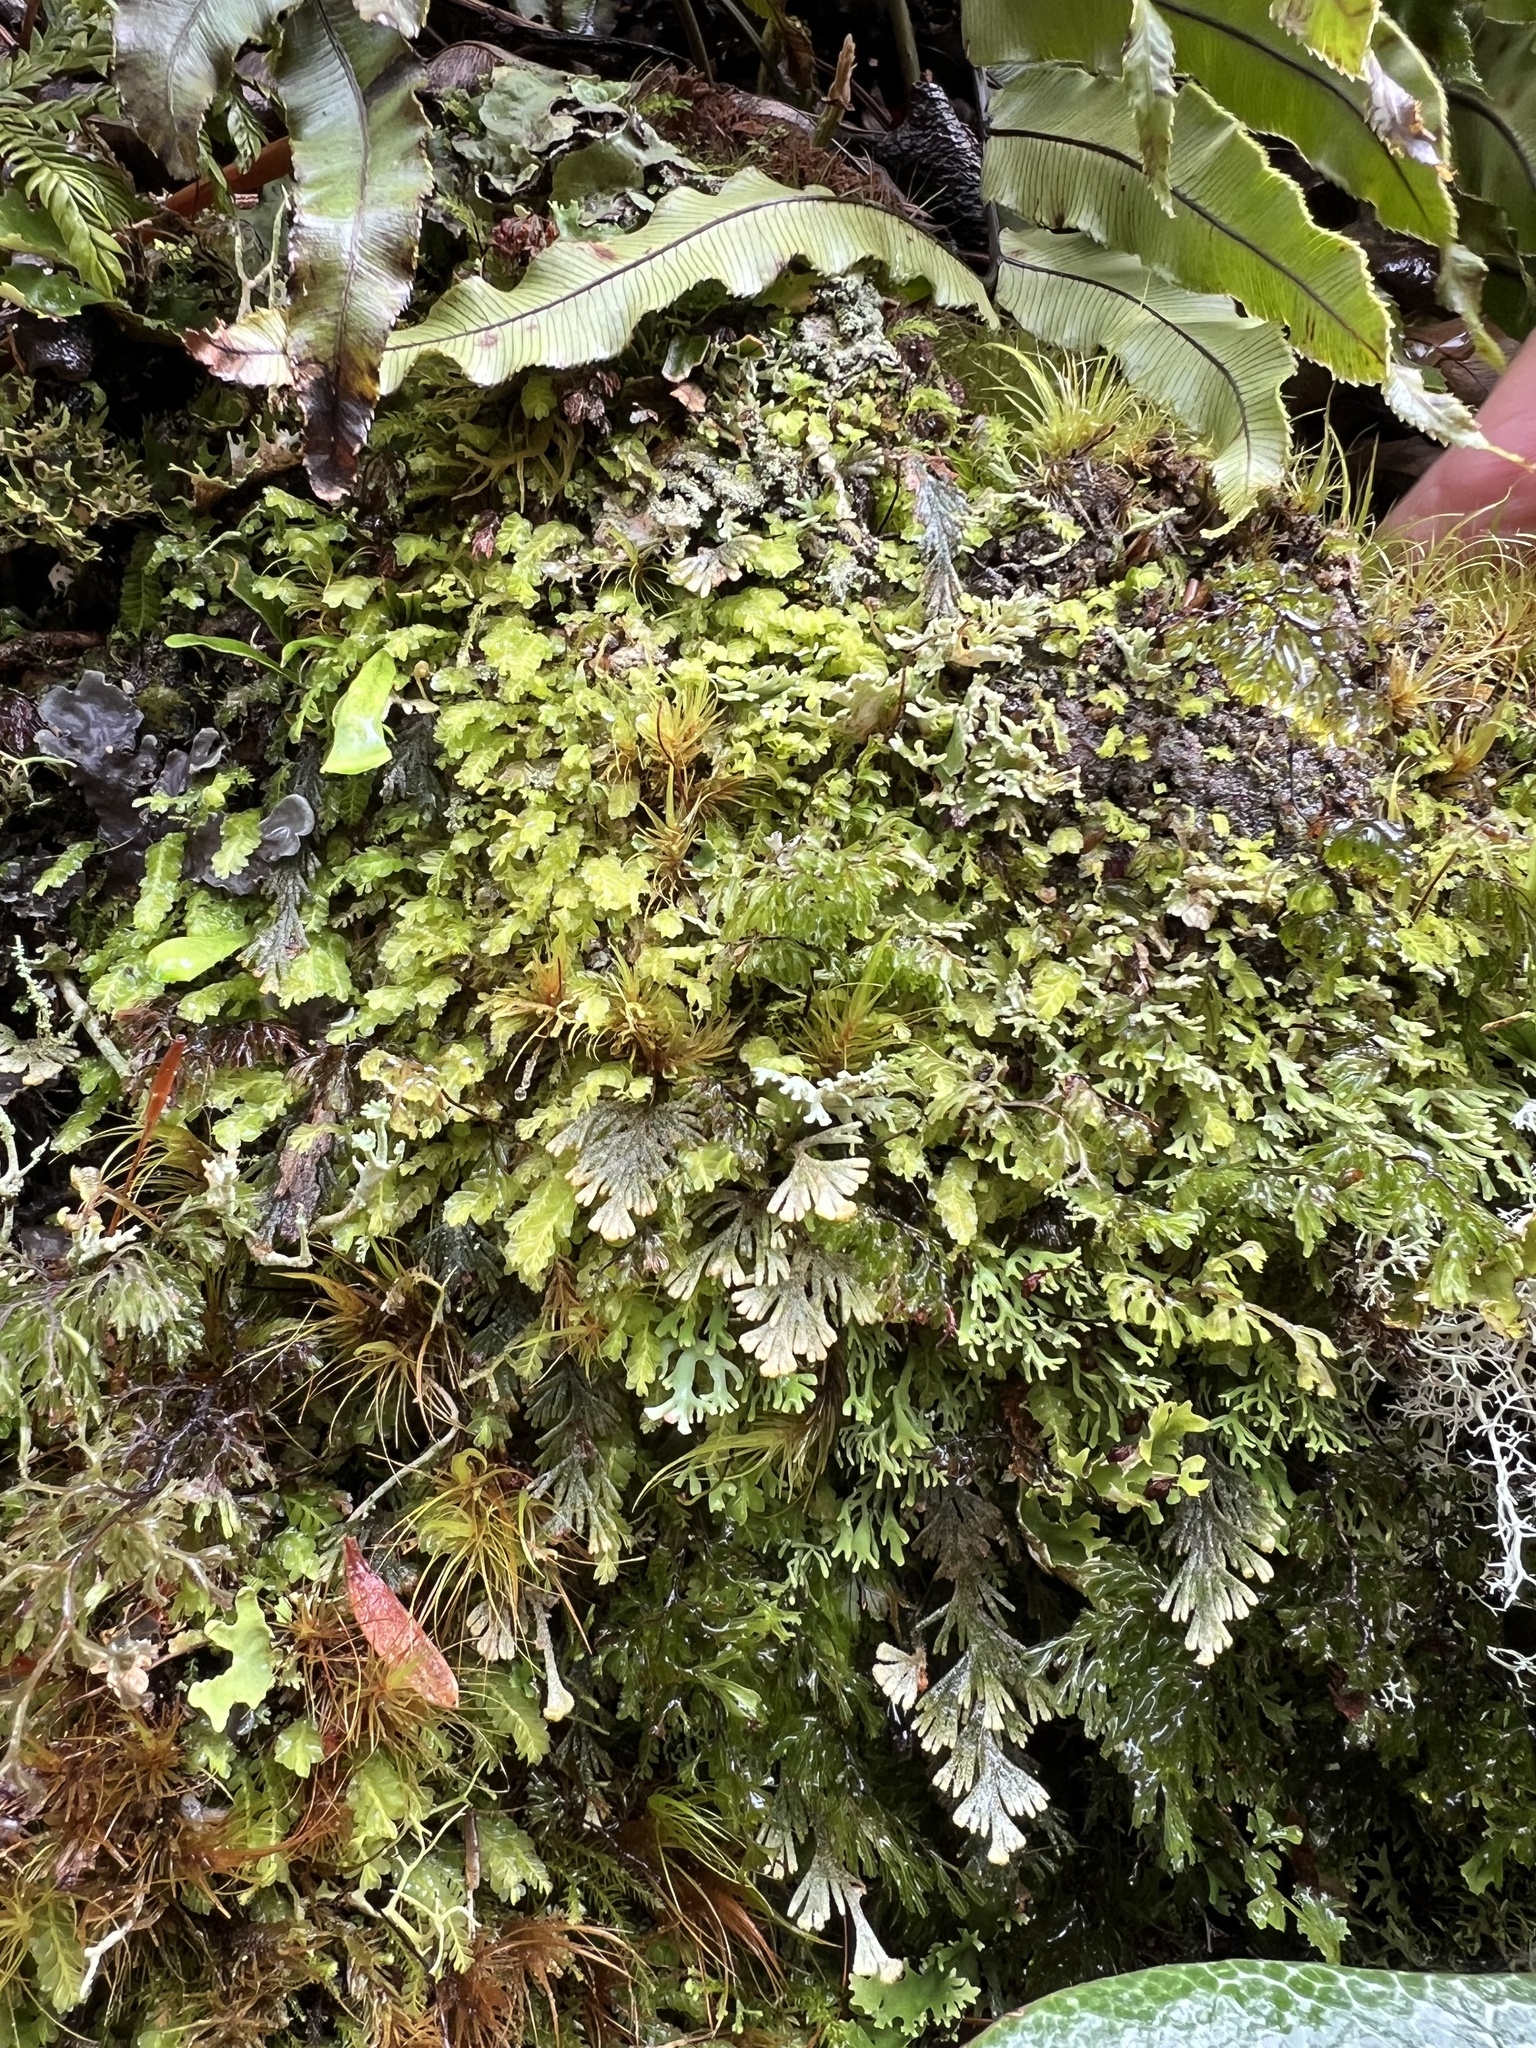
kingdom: Plantae
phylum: Tracheophyta
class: Polypodiopsida
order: Hymenophyllales
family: Hymenophyllaceae
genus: Hymenophyllum
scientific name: Hymenophyllum malingii
